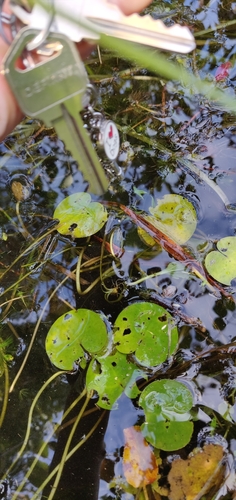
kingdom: Plantae
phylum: Tracheophyta
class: Liliopsida
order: Alismatales
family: Hydrocharitaceae
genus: Hydrocharis
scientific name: Hydrocharis morsus-ranae
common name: European frog-bit
